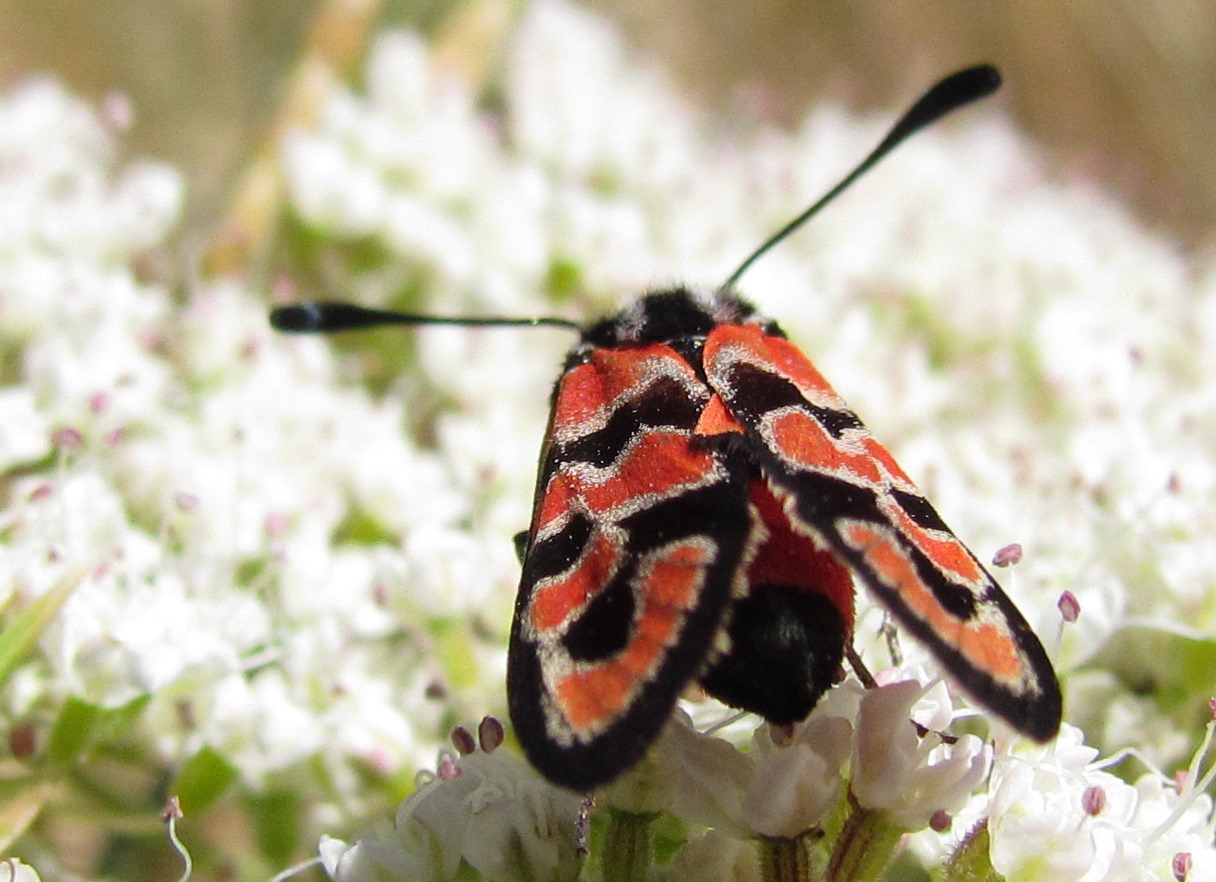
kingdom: Animalia
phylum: Arthropoda
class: Insecta
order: Lepidoptera
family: Zygaenidae
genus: Zygaena
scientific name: Zygaena fausta
